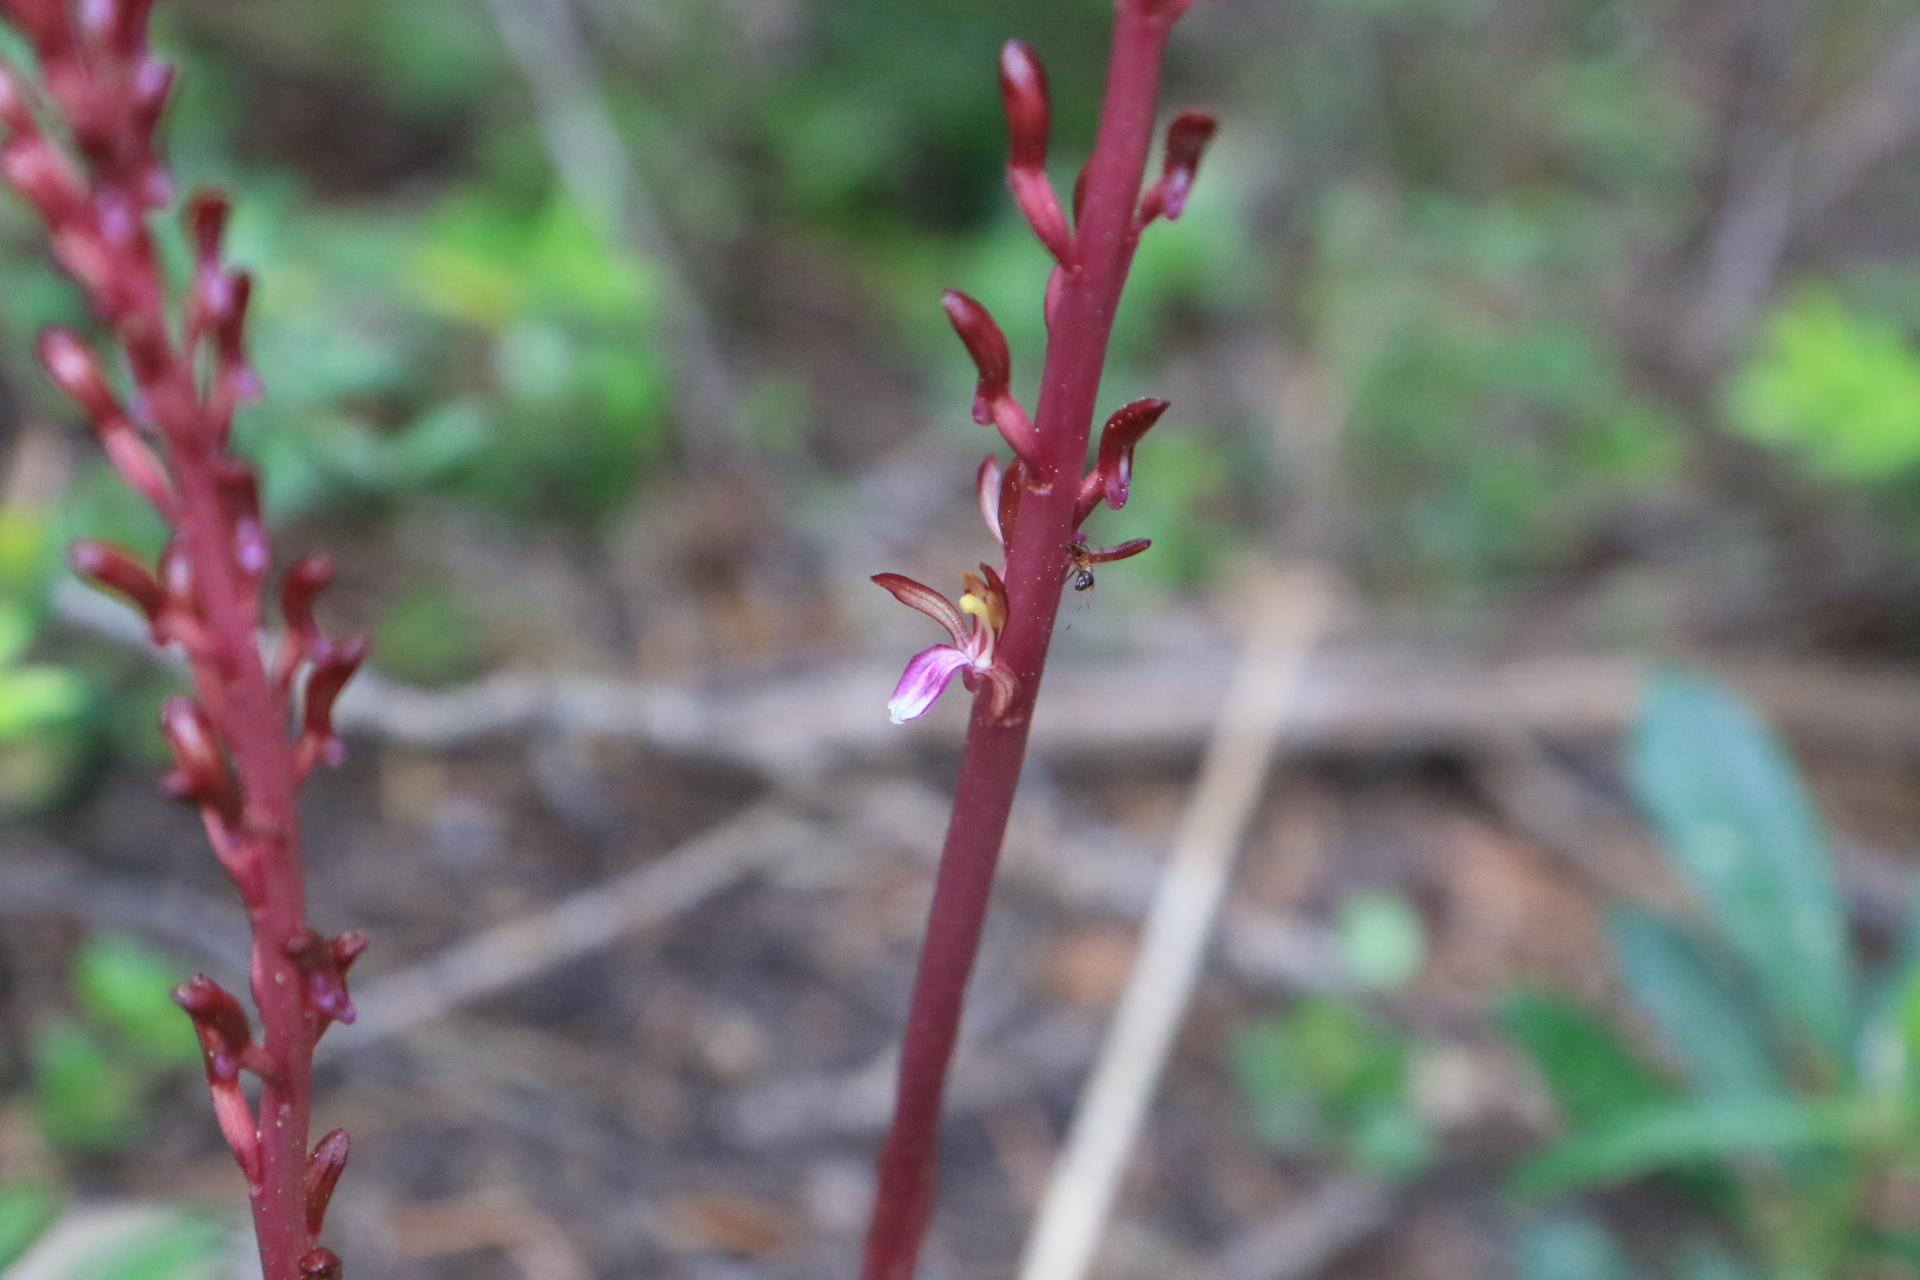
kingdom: Plantae
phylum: Tracheophyta
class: Liliopsida
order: Asparagales
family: Orchidaceae
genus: Corallorhiza
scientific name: Corallorhiza mertensiana
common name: Pacific coralroot
